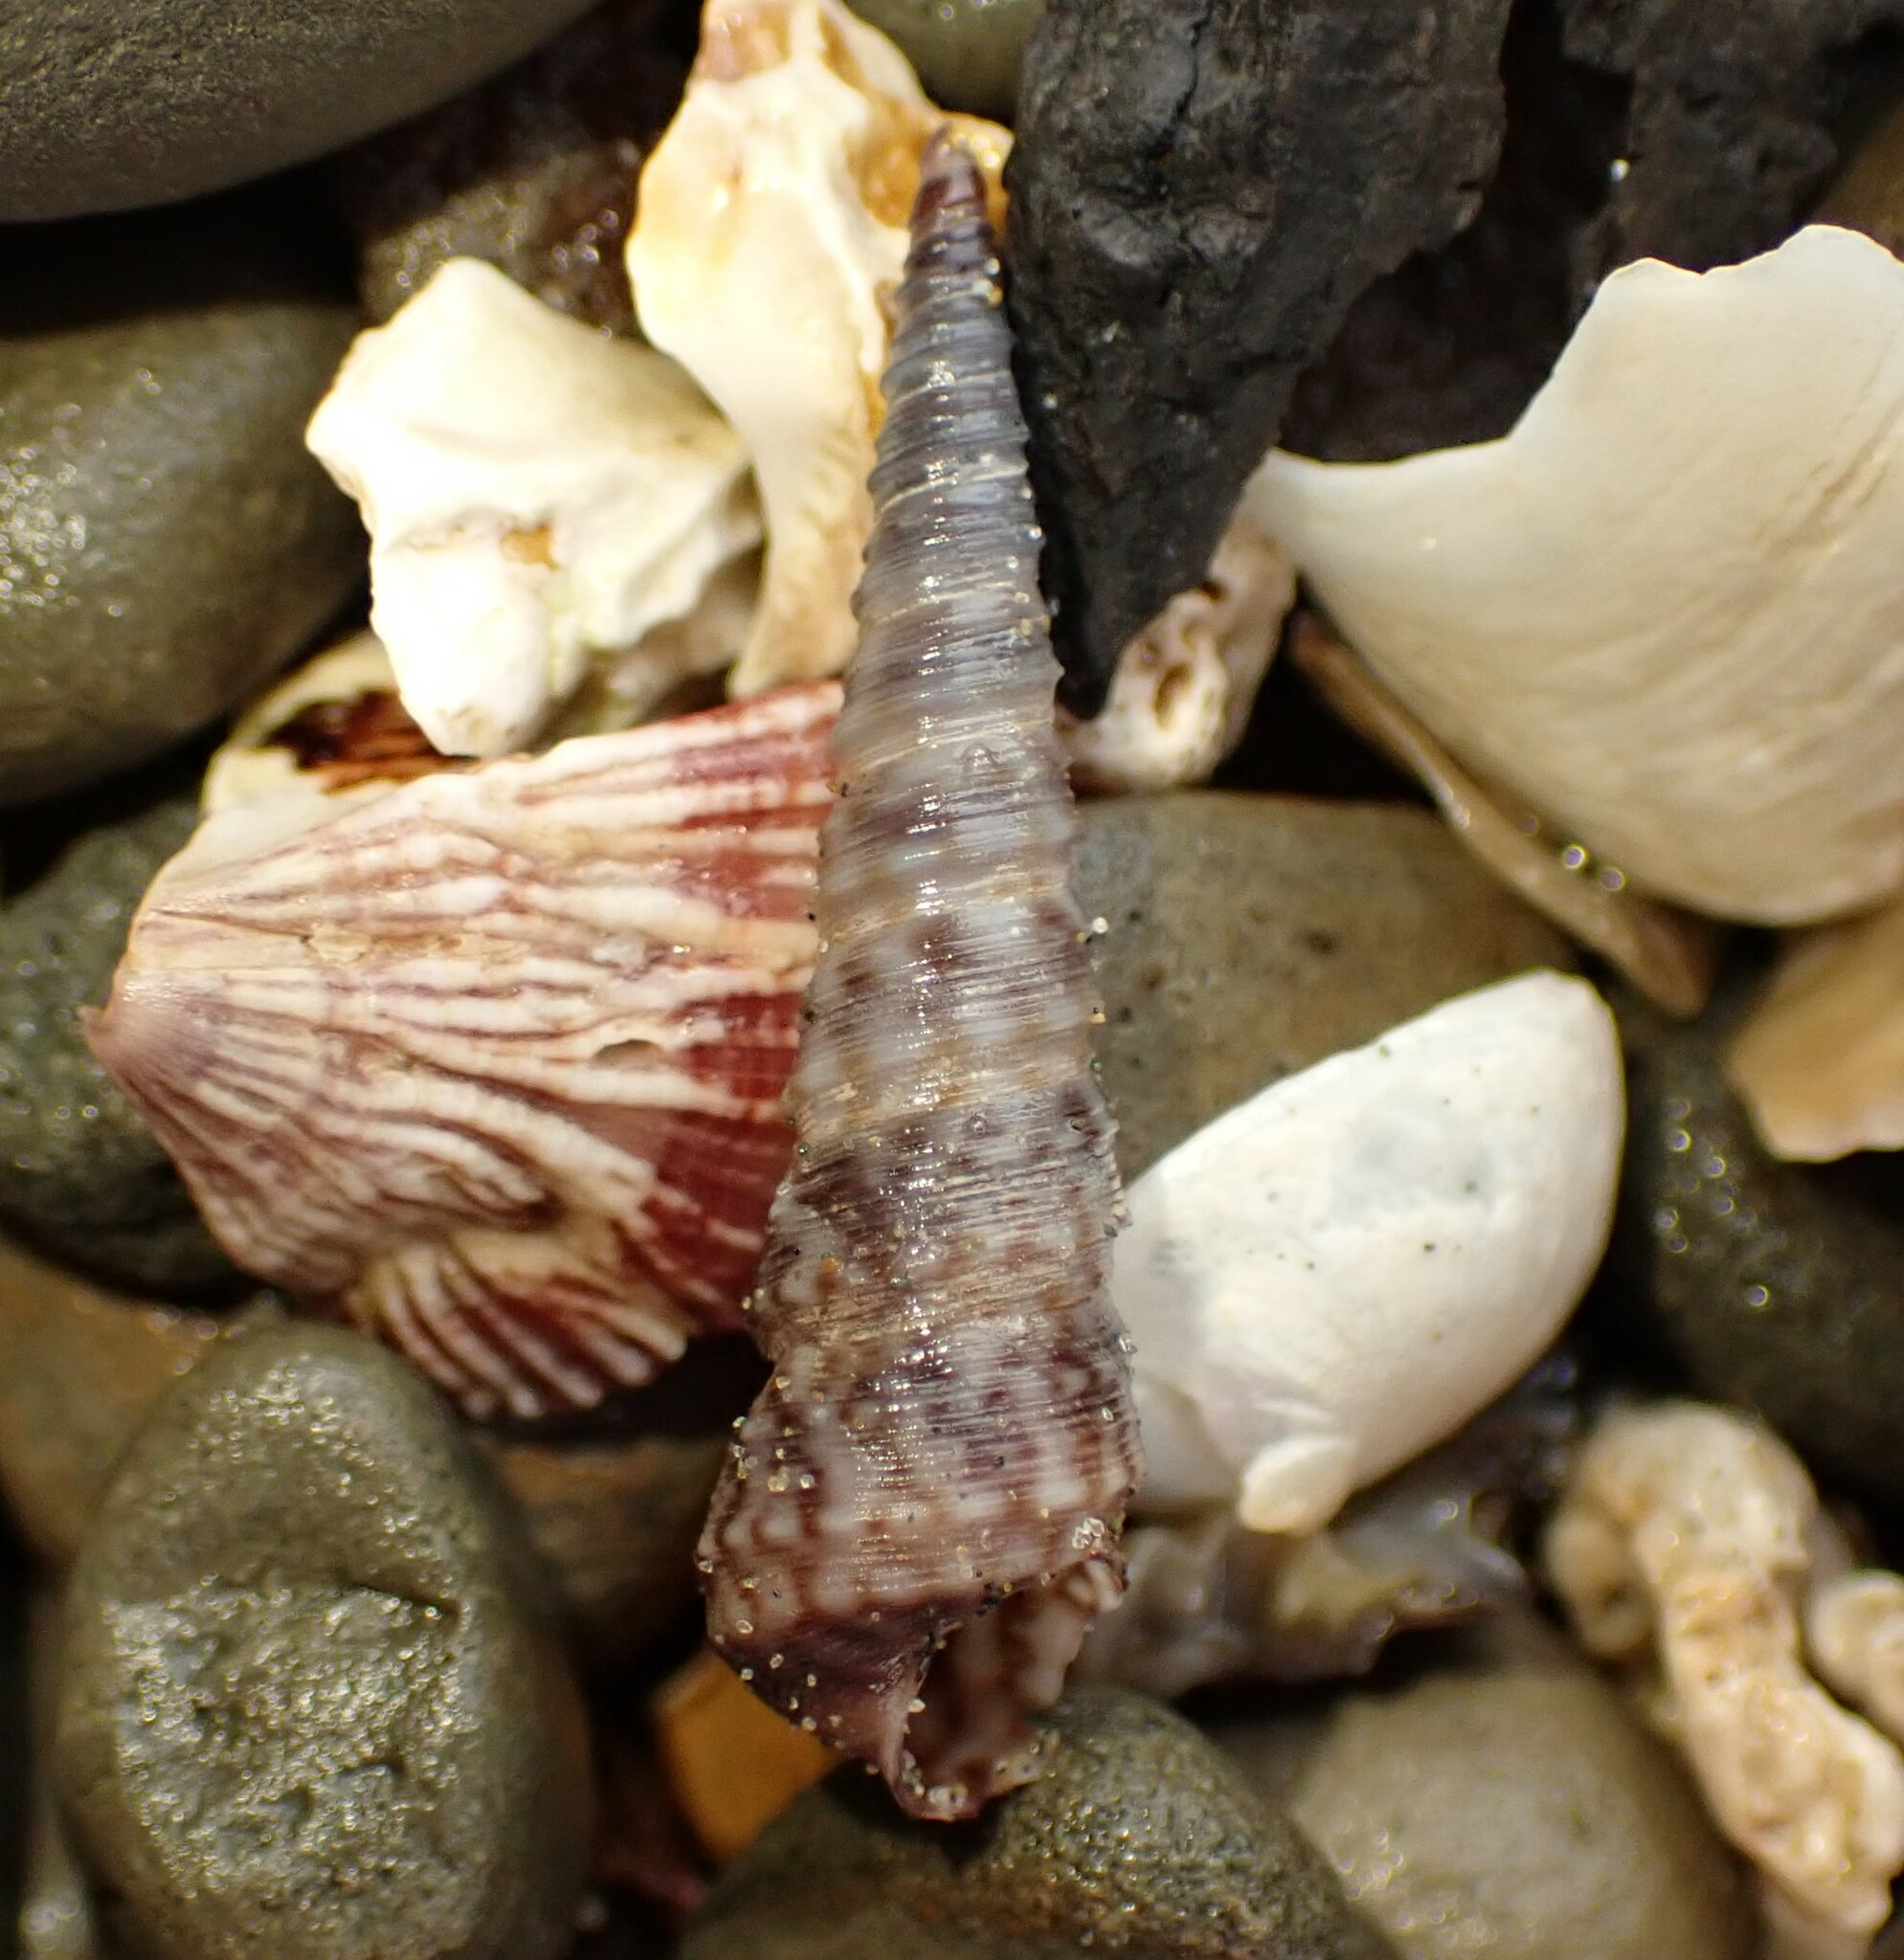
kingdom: Animalia
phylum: Mollusca
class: Gastropoda
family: Turritellidae
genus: Stiracolpus
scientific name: Stiracolpus pagoda
